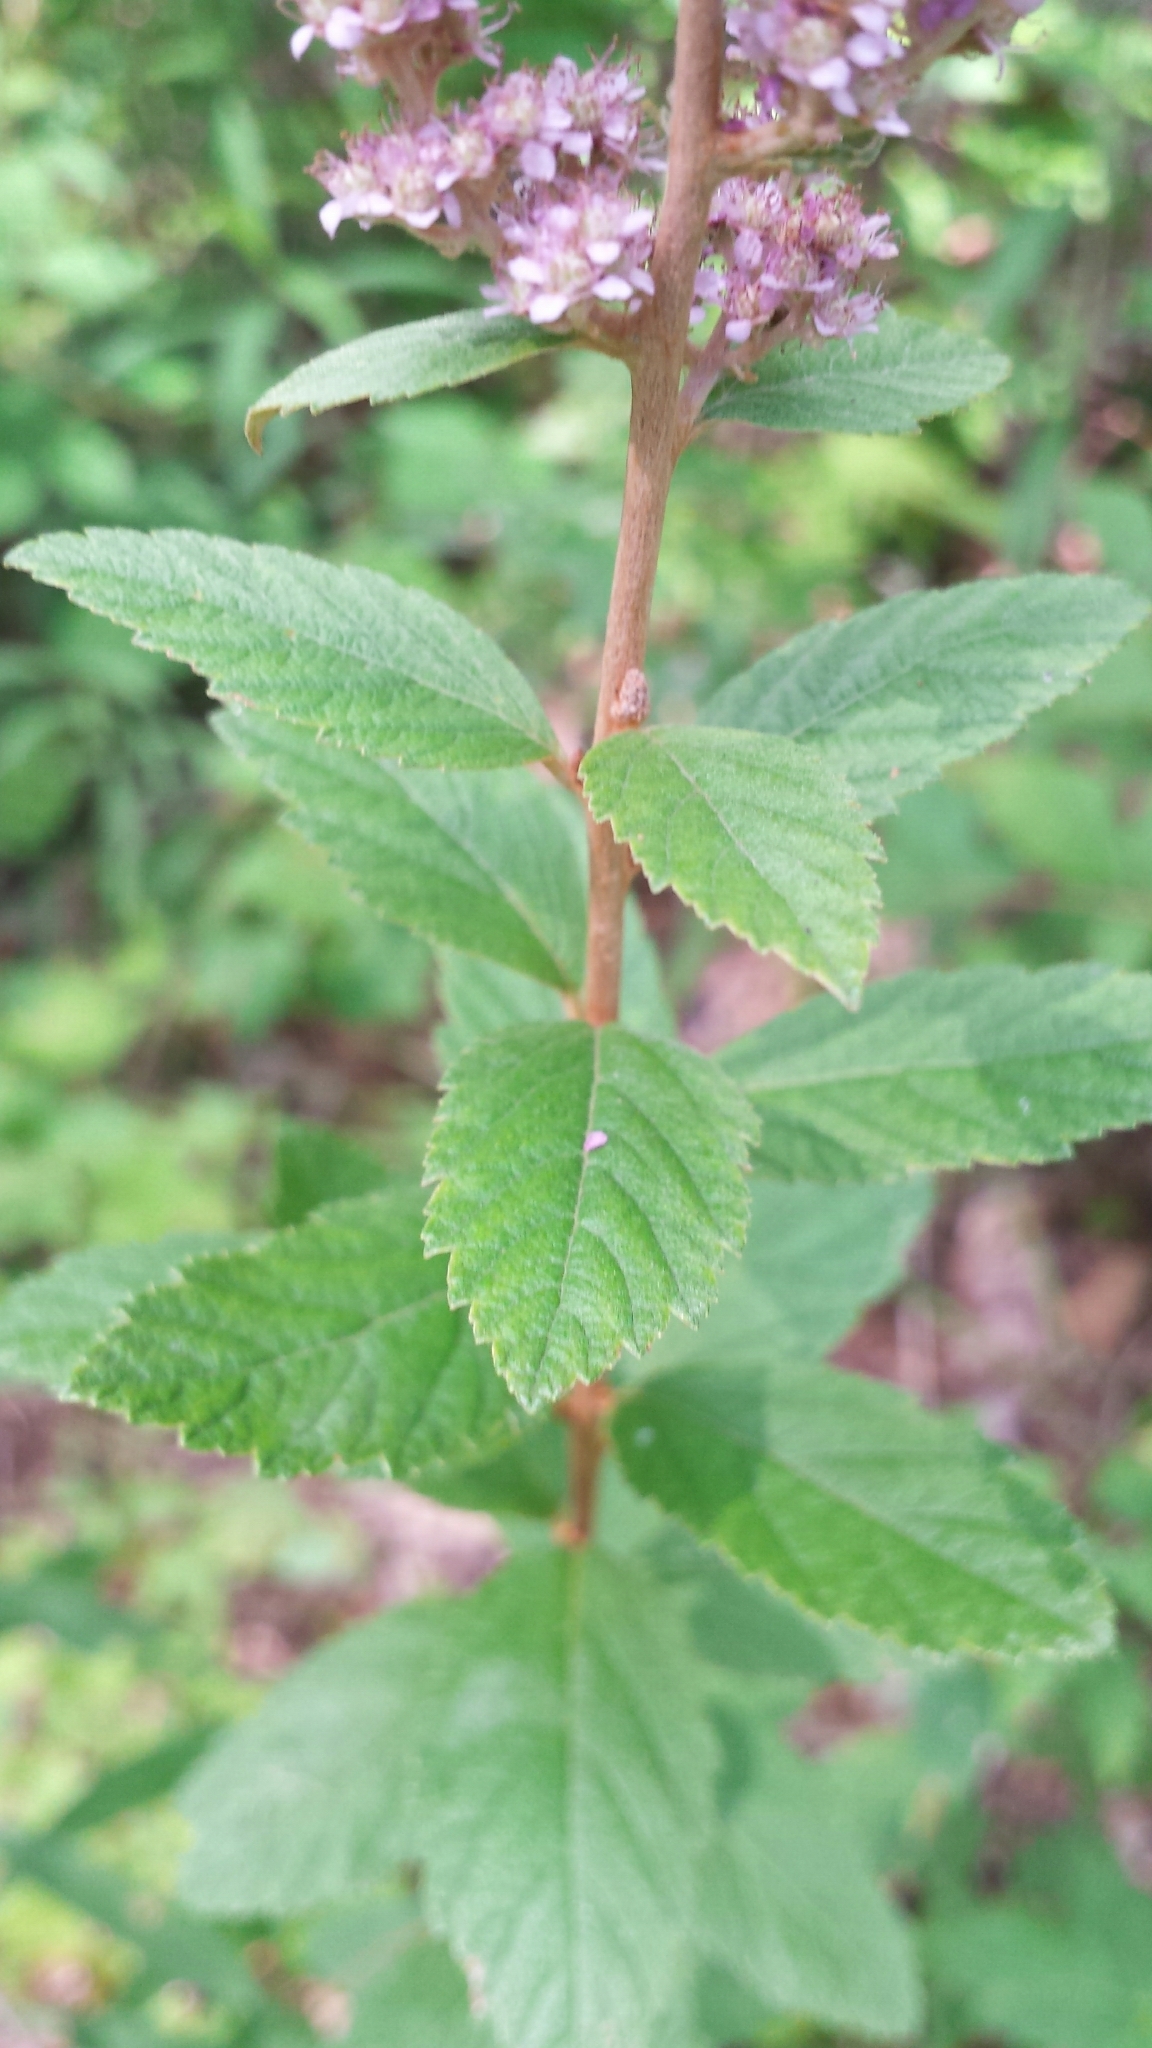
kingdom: Plantae
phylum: Tracheophyta
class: Magnoliopsida
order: Rosales
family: Rosaceae
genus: Spiraea
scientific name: Spiraea tomentosa
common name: Hardhack
